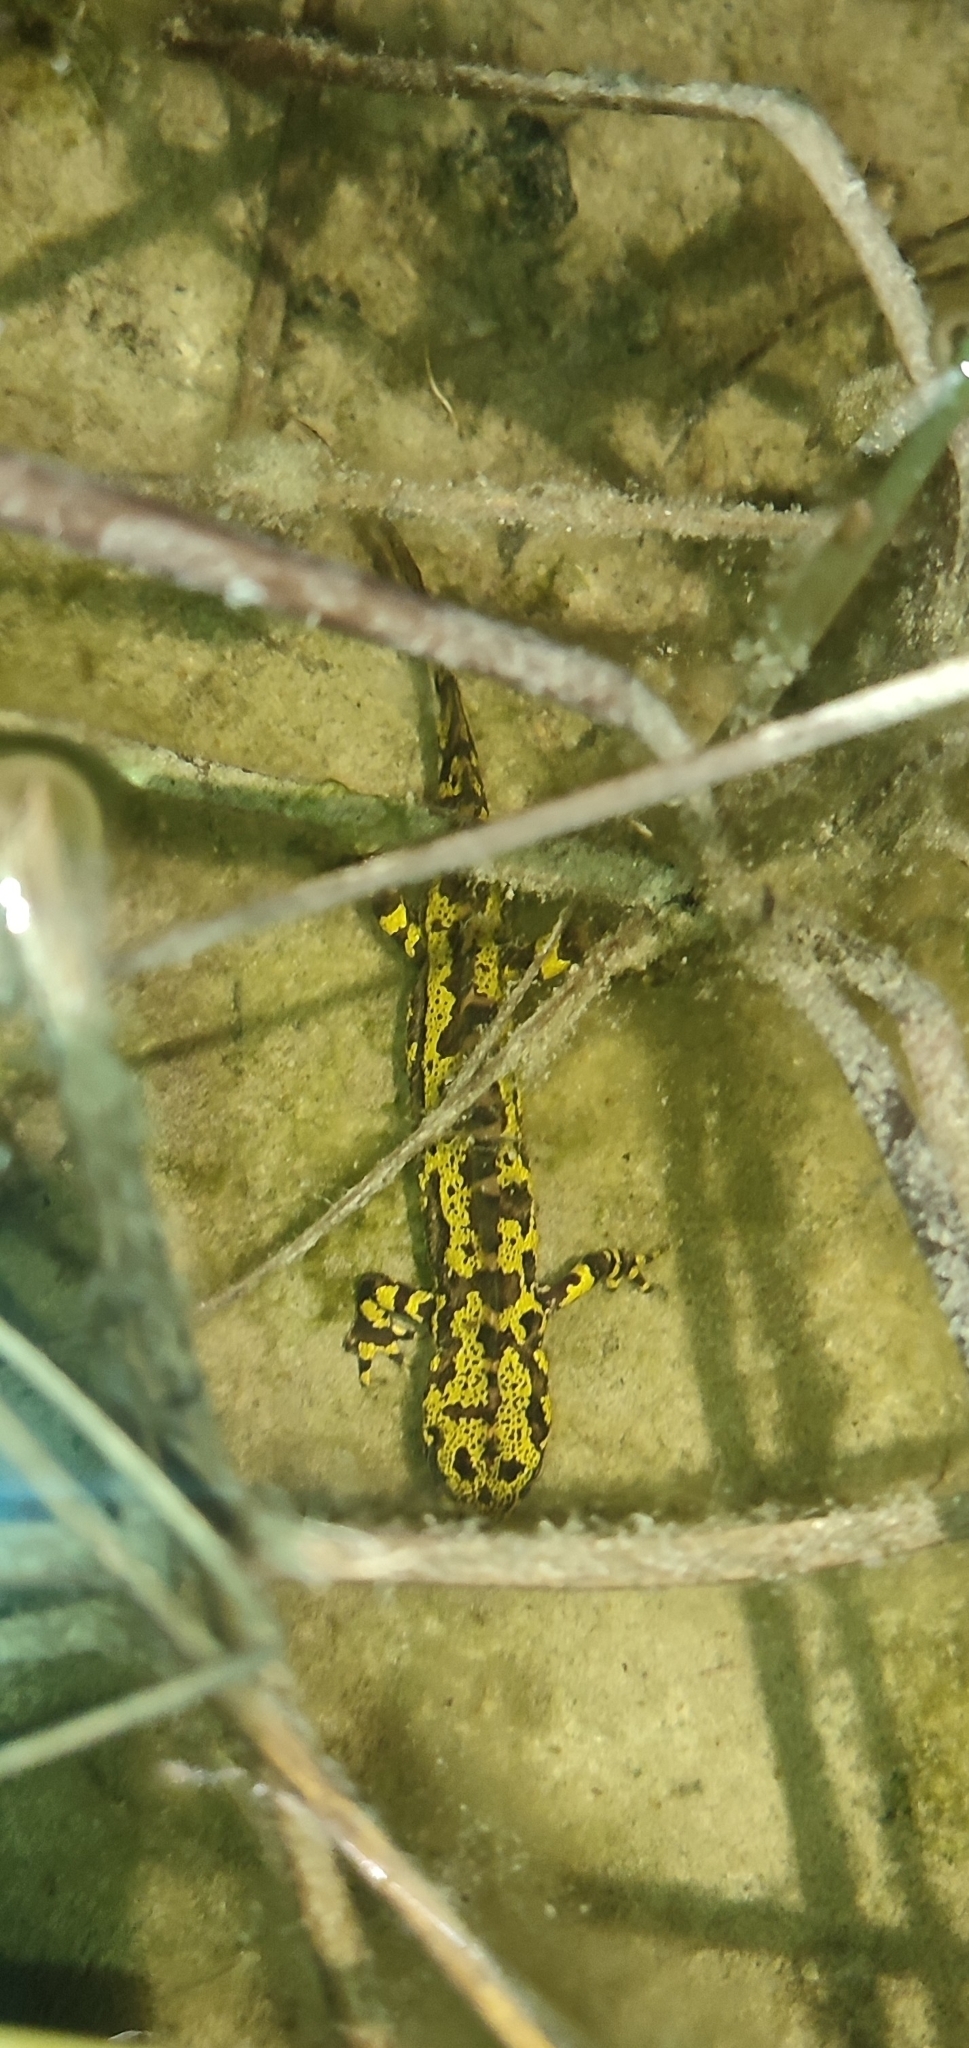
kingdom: Animalia
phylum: Chordata
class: Amphibia
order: Caudata
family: Salamandridae
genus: Triturus
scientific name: Triturus marmoratus
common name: Marbled newt
